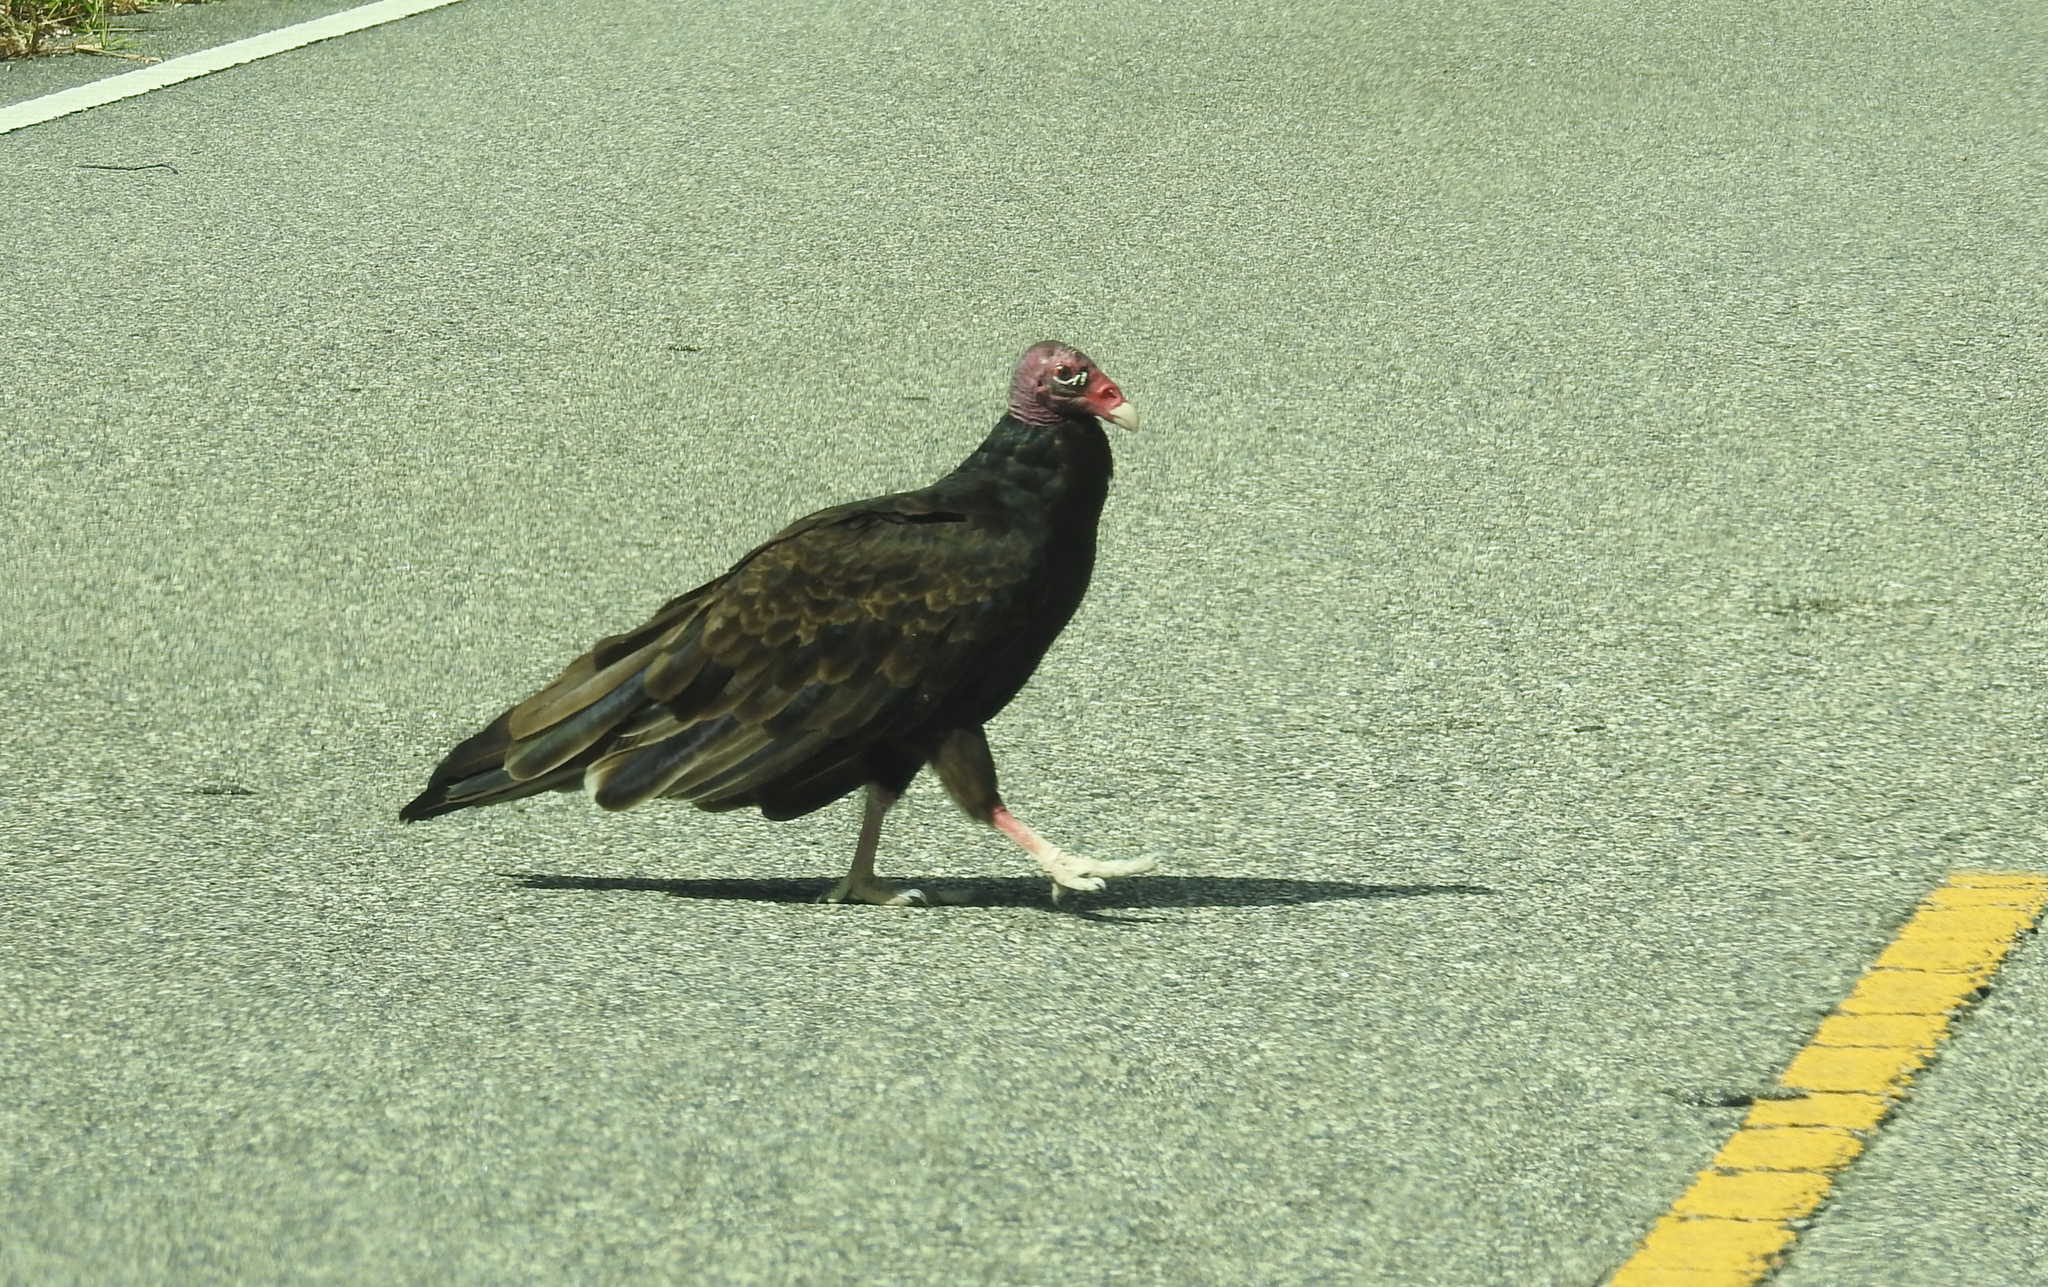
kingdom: Animalia
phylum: Chordata
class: Aves
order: Accipitriformes
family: Cathartidae
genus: Cathartes
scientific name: Cathartes aura
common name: Turkey vulture
